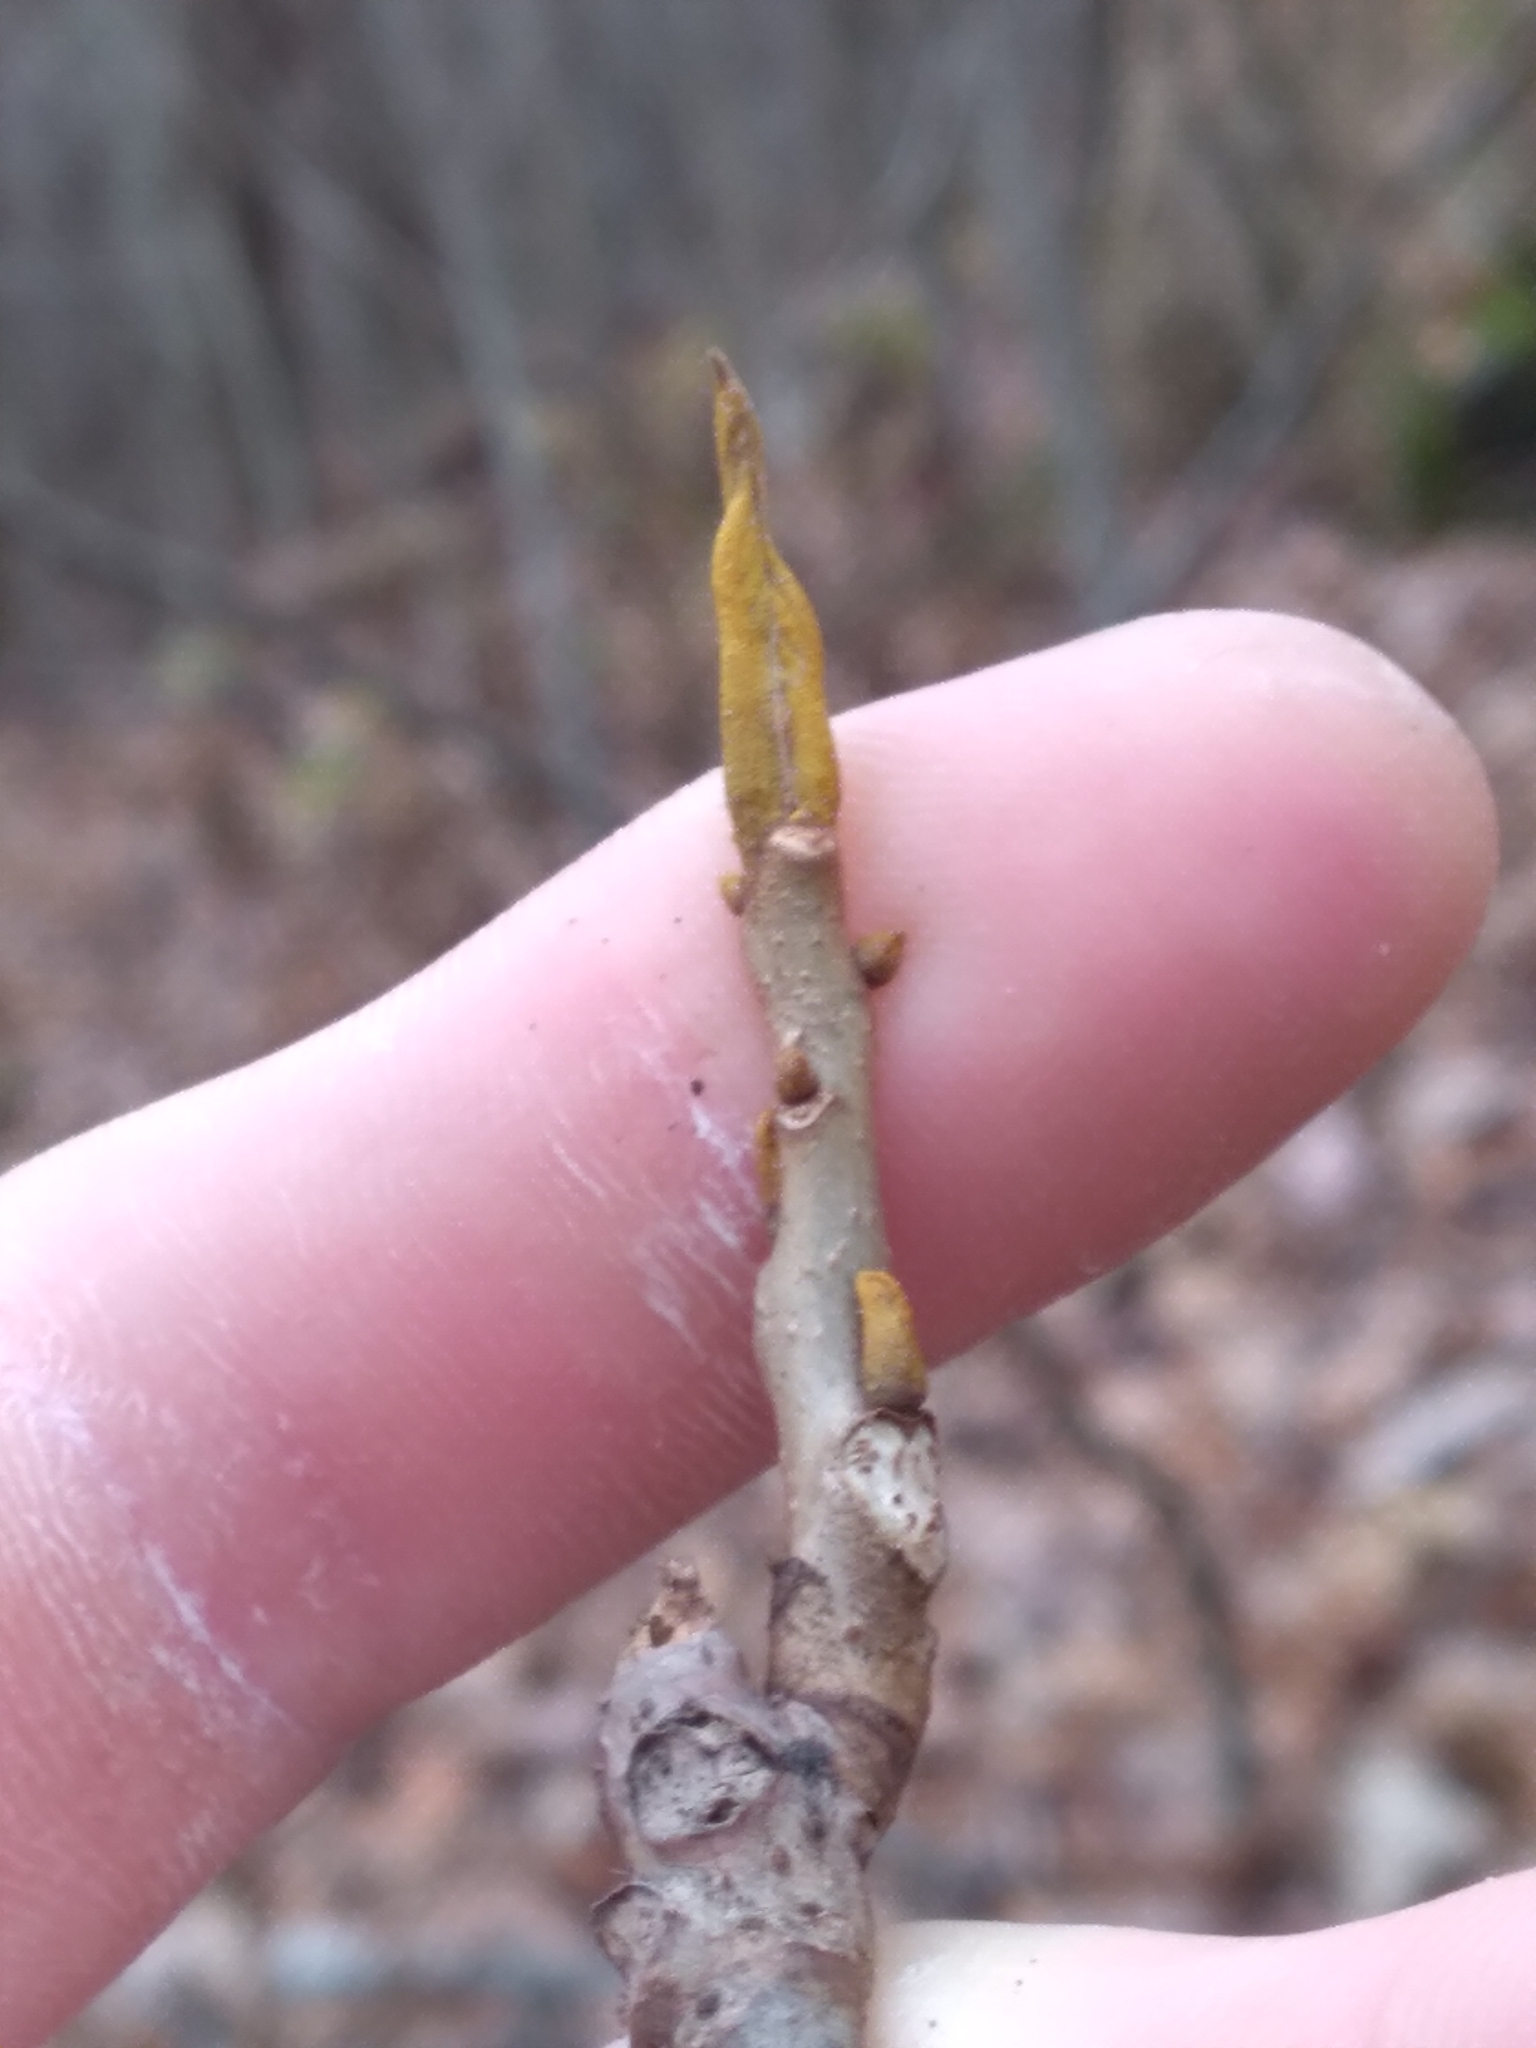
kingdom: Plantae
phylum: Tracheophyta
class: Magnoliopsida
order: Fagales
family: Juglandaceae
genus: Carya
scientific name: Carya cordiformis
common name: Bitternut hickory
